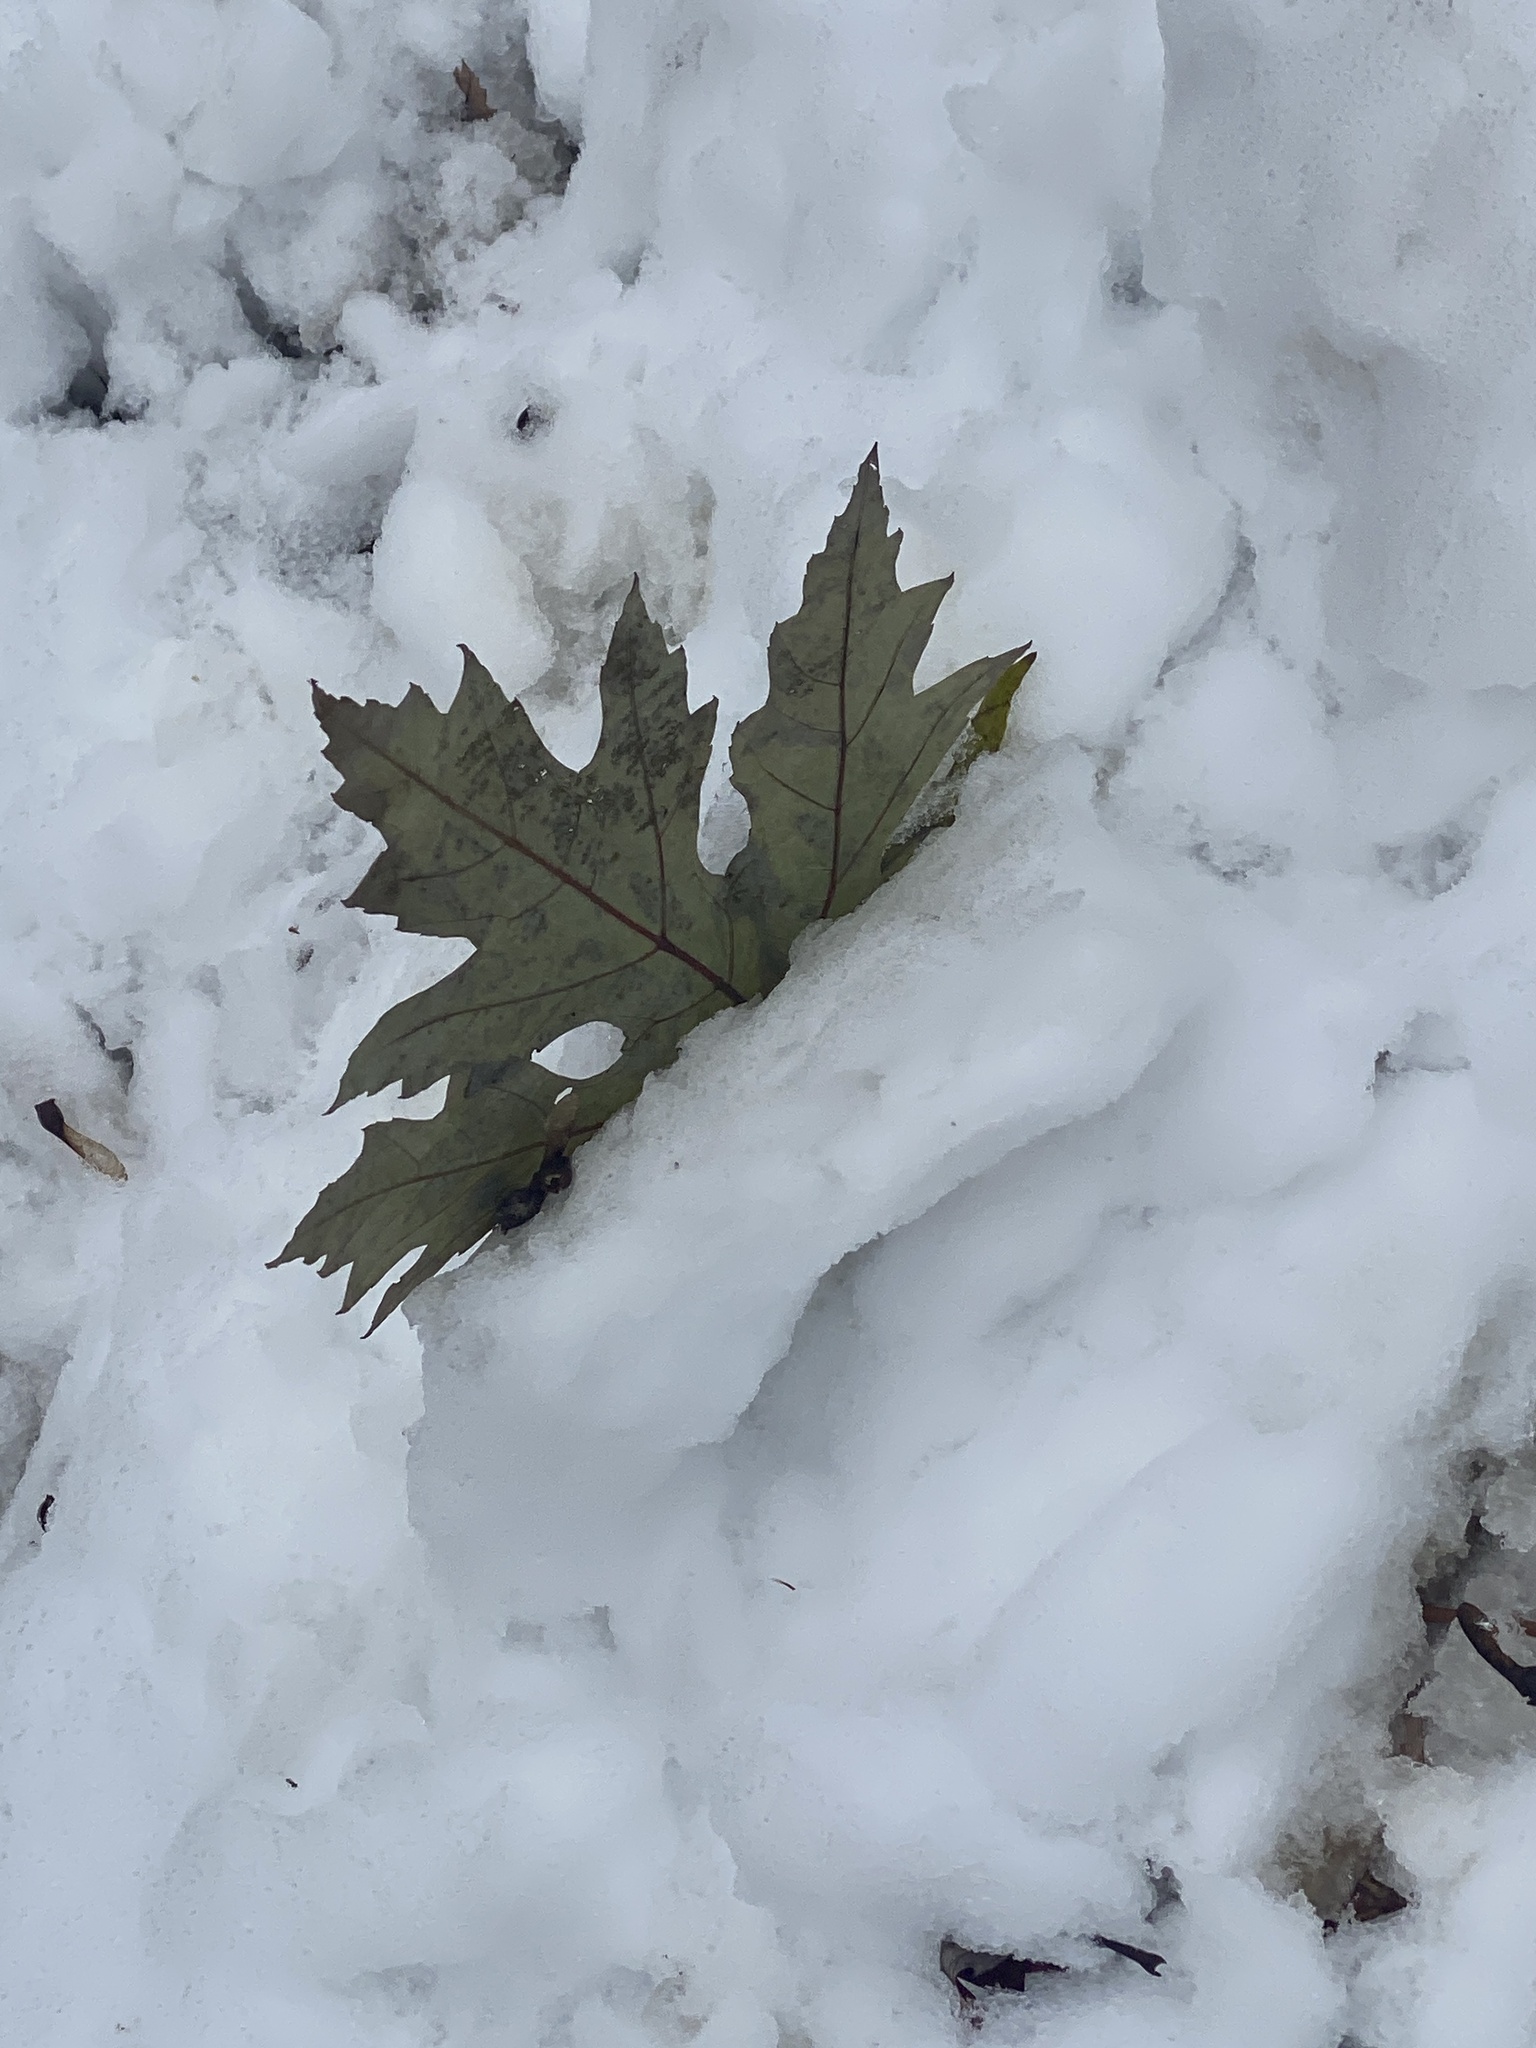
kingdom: Plantae
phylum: Tracheophyta
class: Magnoliopsida
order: Sapindales
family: Sapindaceae
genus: Acer
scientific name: Acer saccharinum
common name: Silver maple
